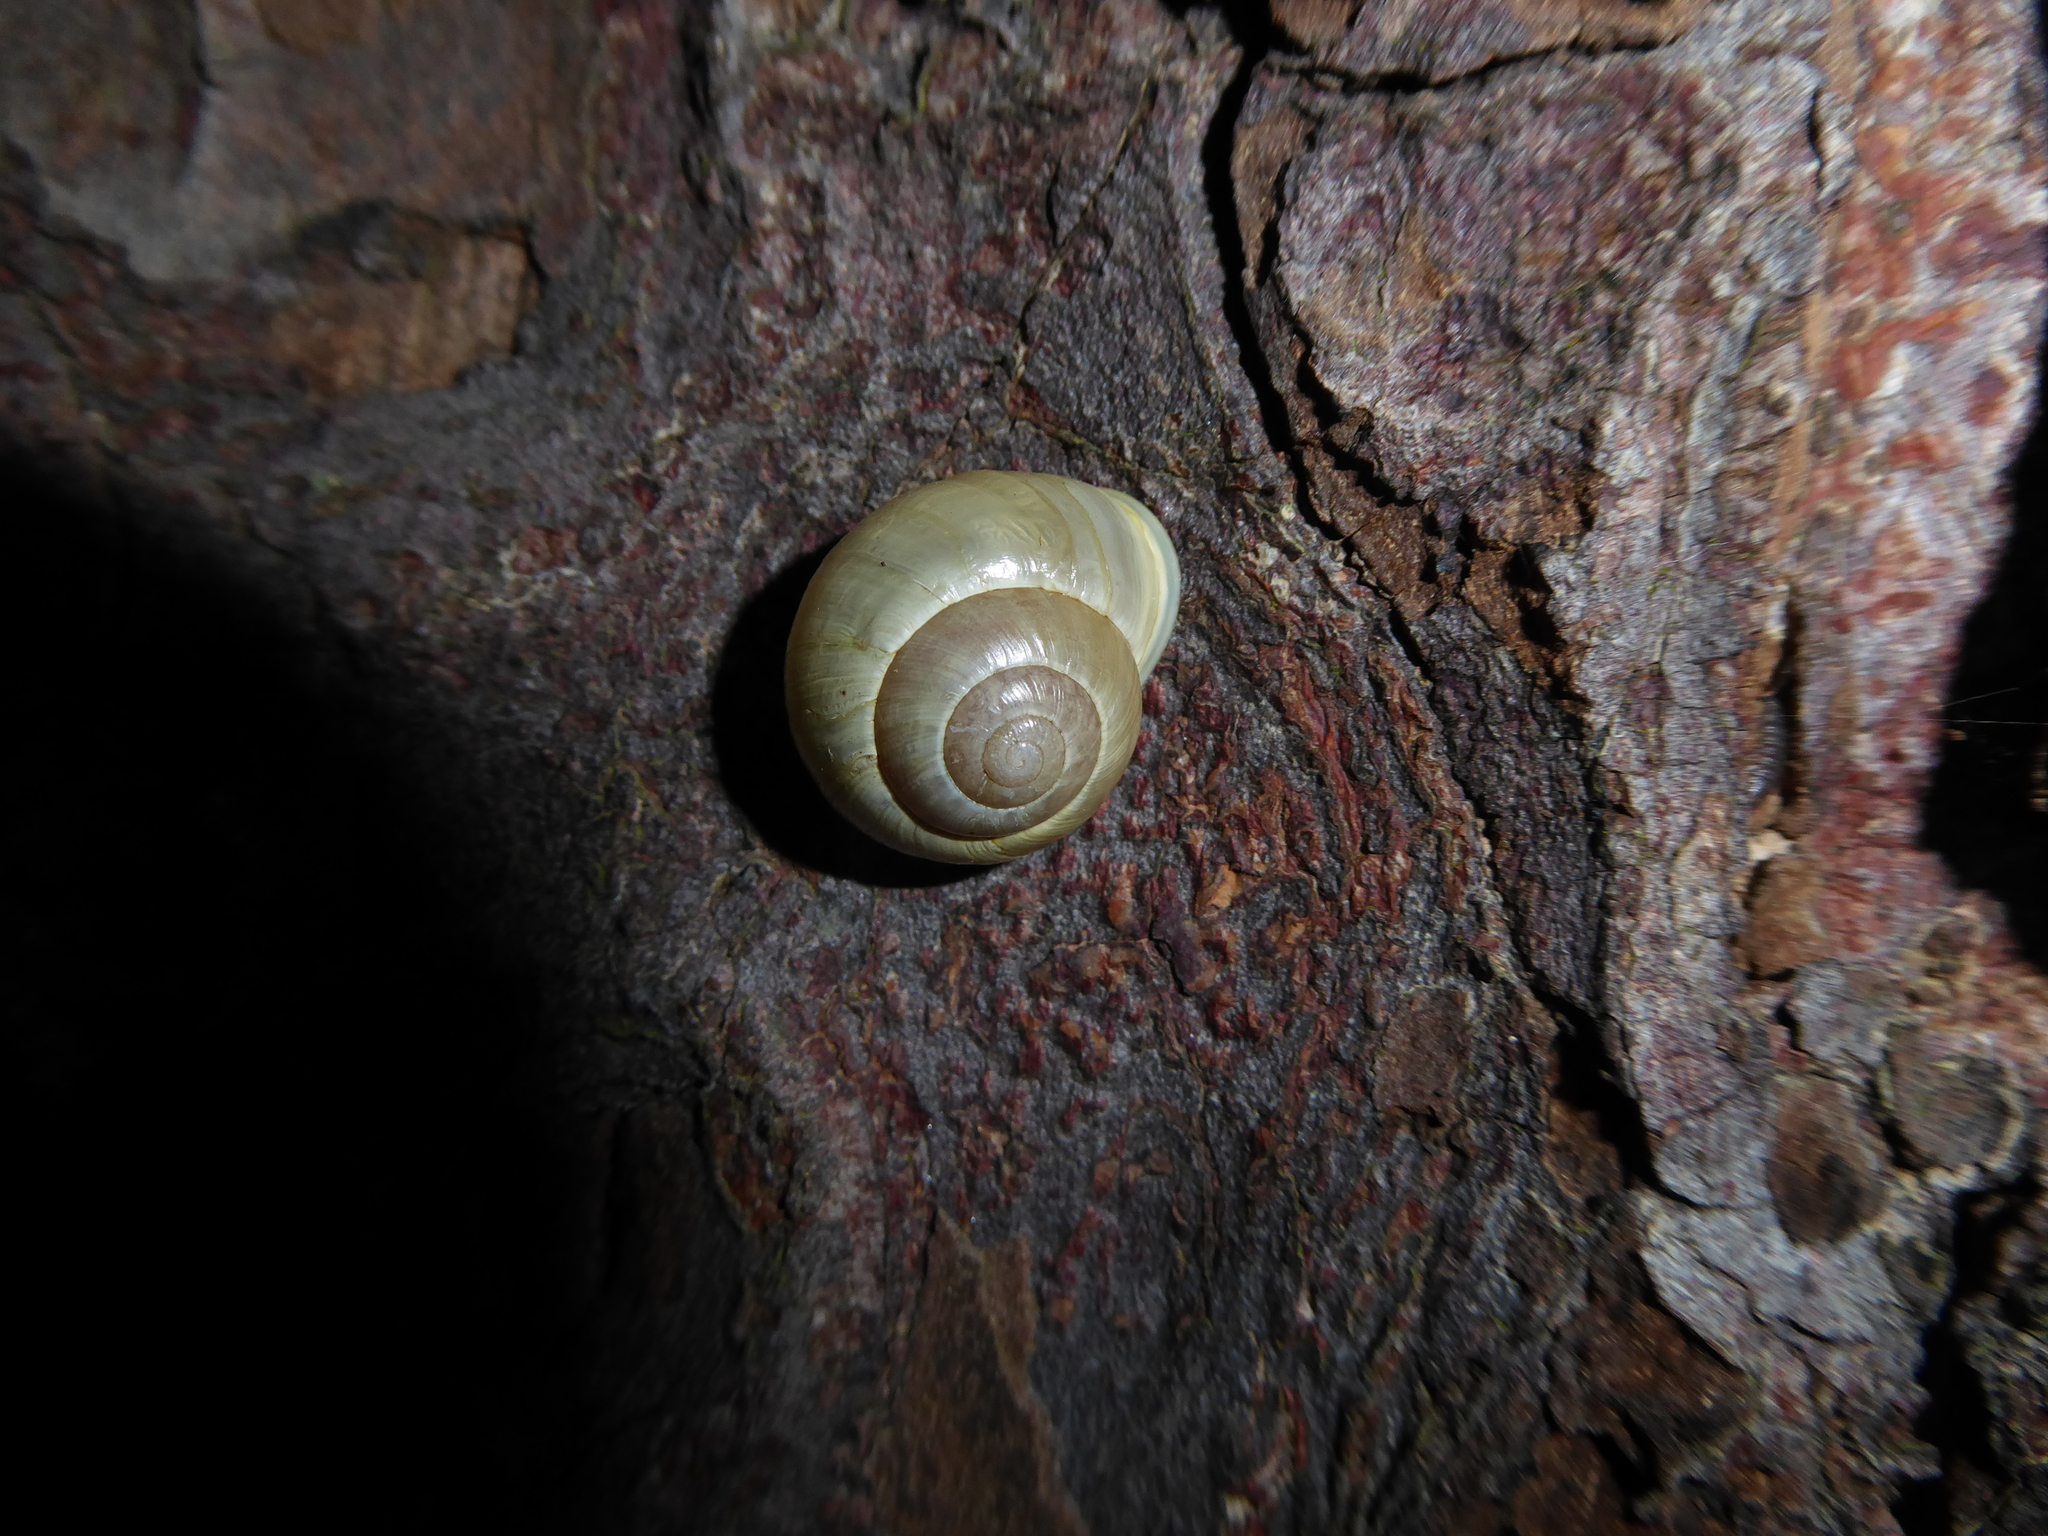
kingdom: Animalia
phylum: Mollusca
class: Gastropoda
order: Stylommatophora
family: Helicidae
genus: Cepaea
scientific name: Cepaea hortensis
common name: White-lip gardensnail
